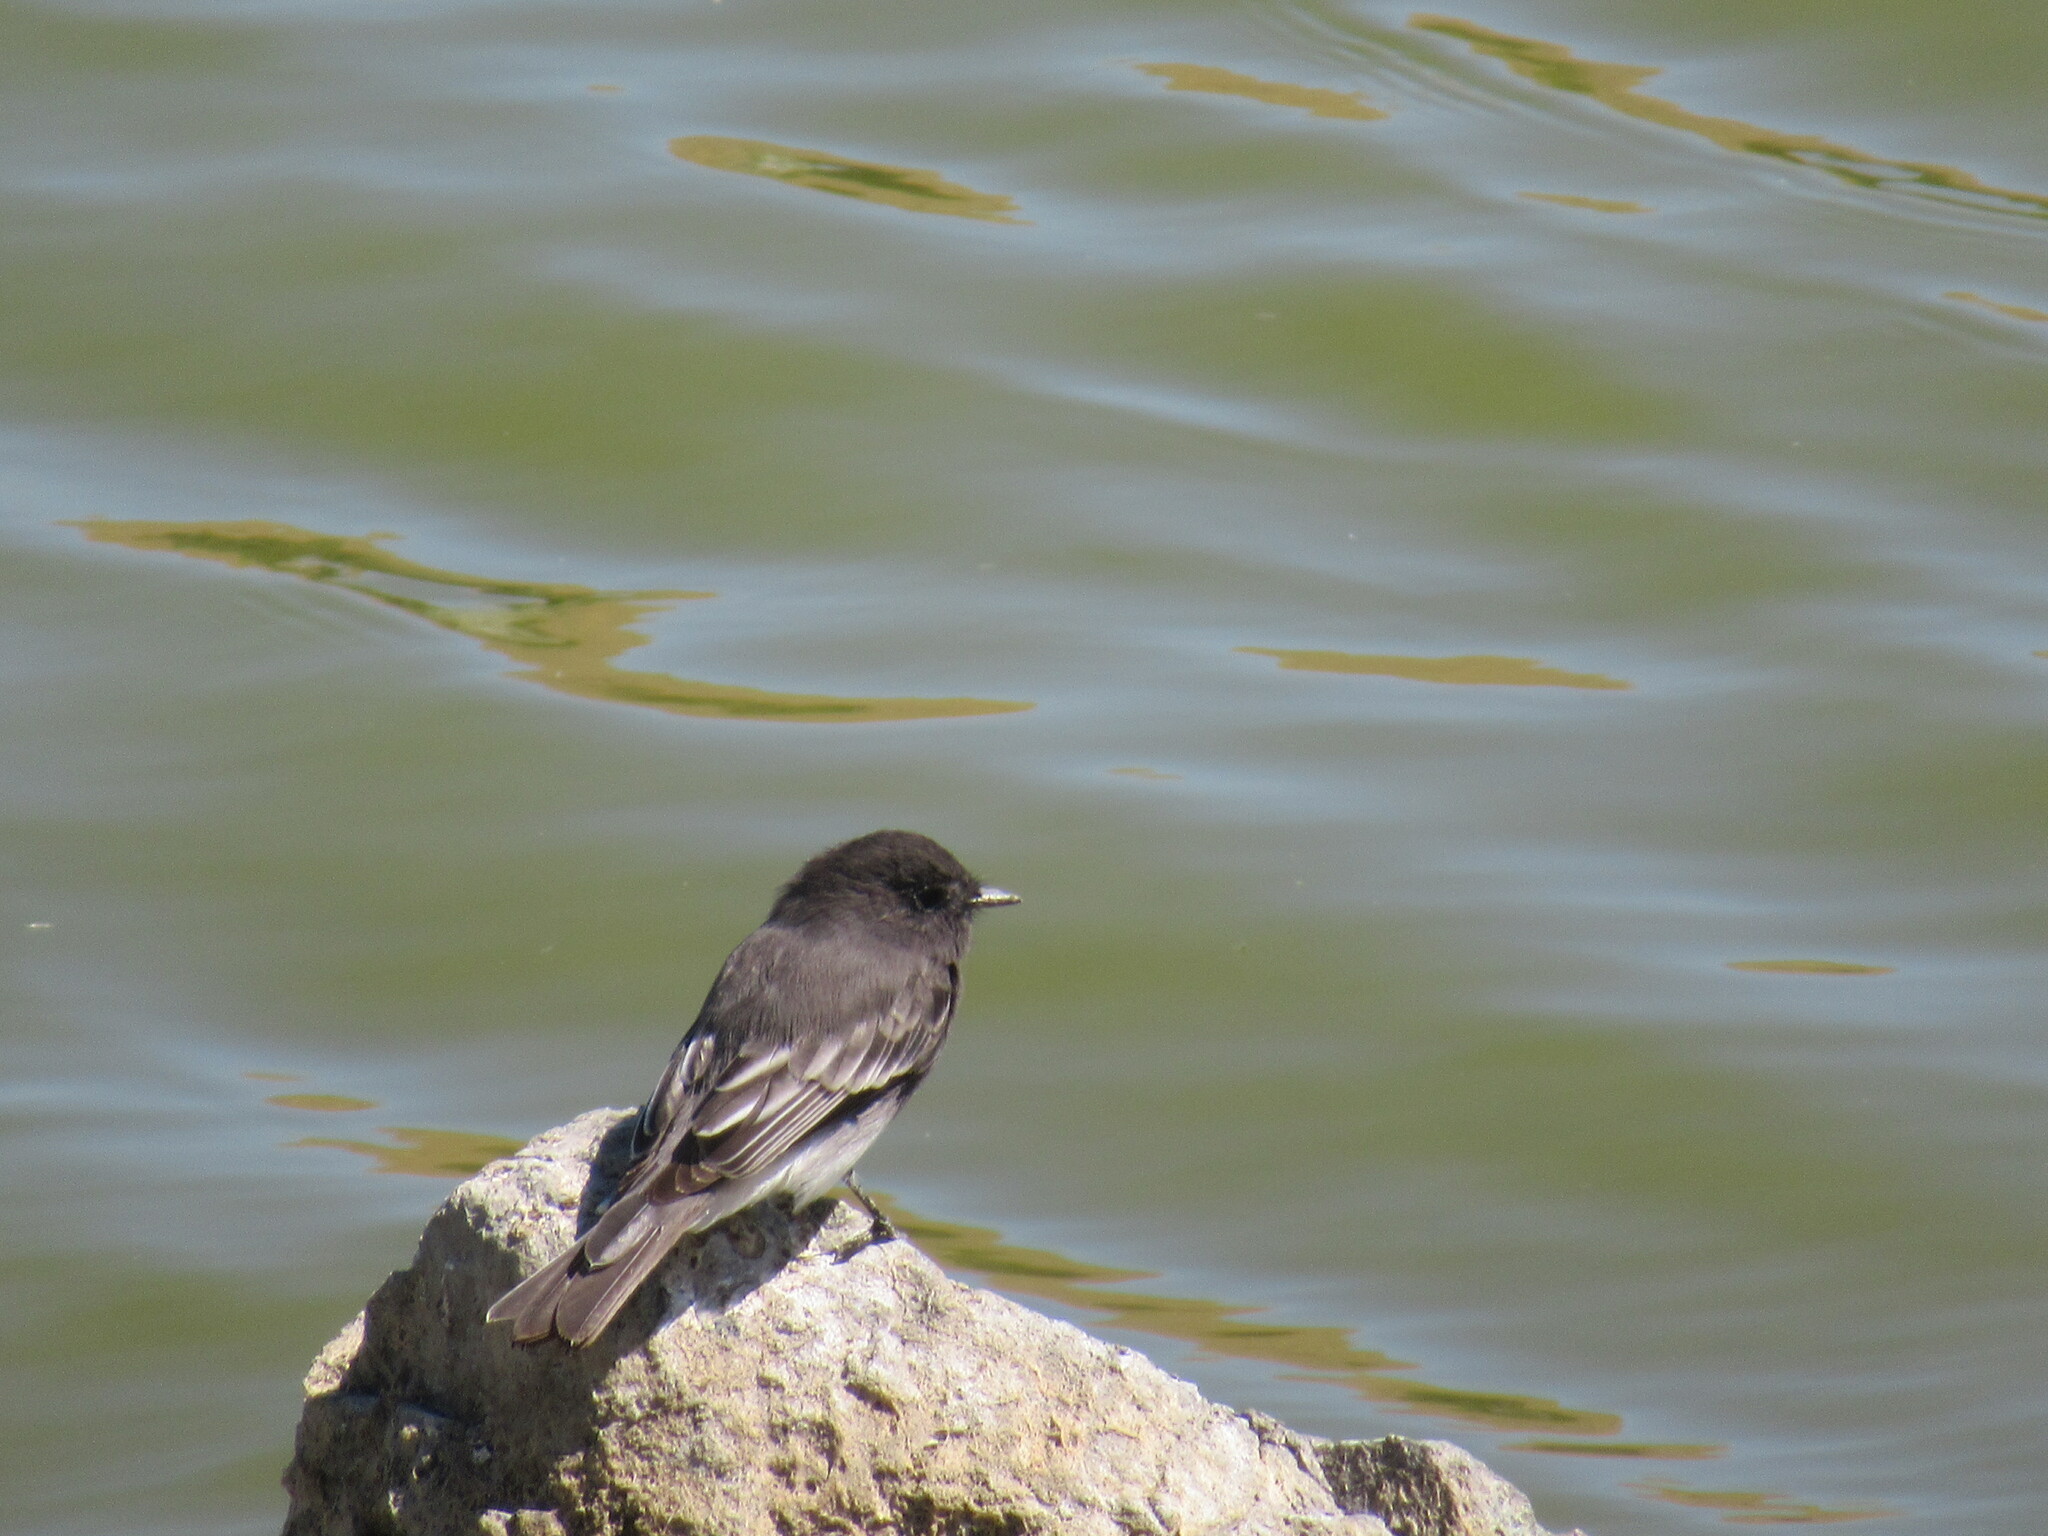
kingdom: Animalia
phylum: Chordata
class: Aves
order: Passeriformes
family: Tyrannidae
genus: Sayornis
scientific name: Sayornis nigricans
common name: Black phoebe
